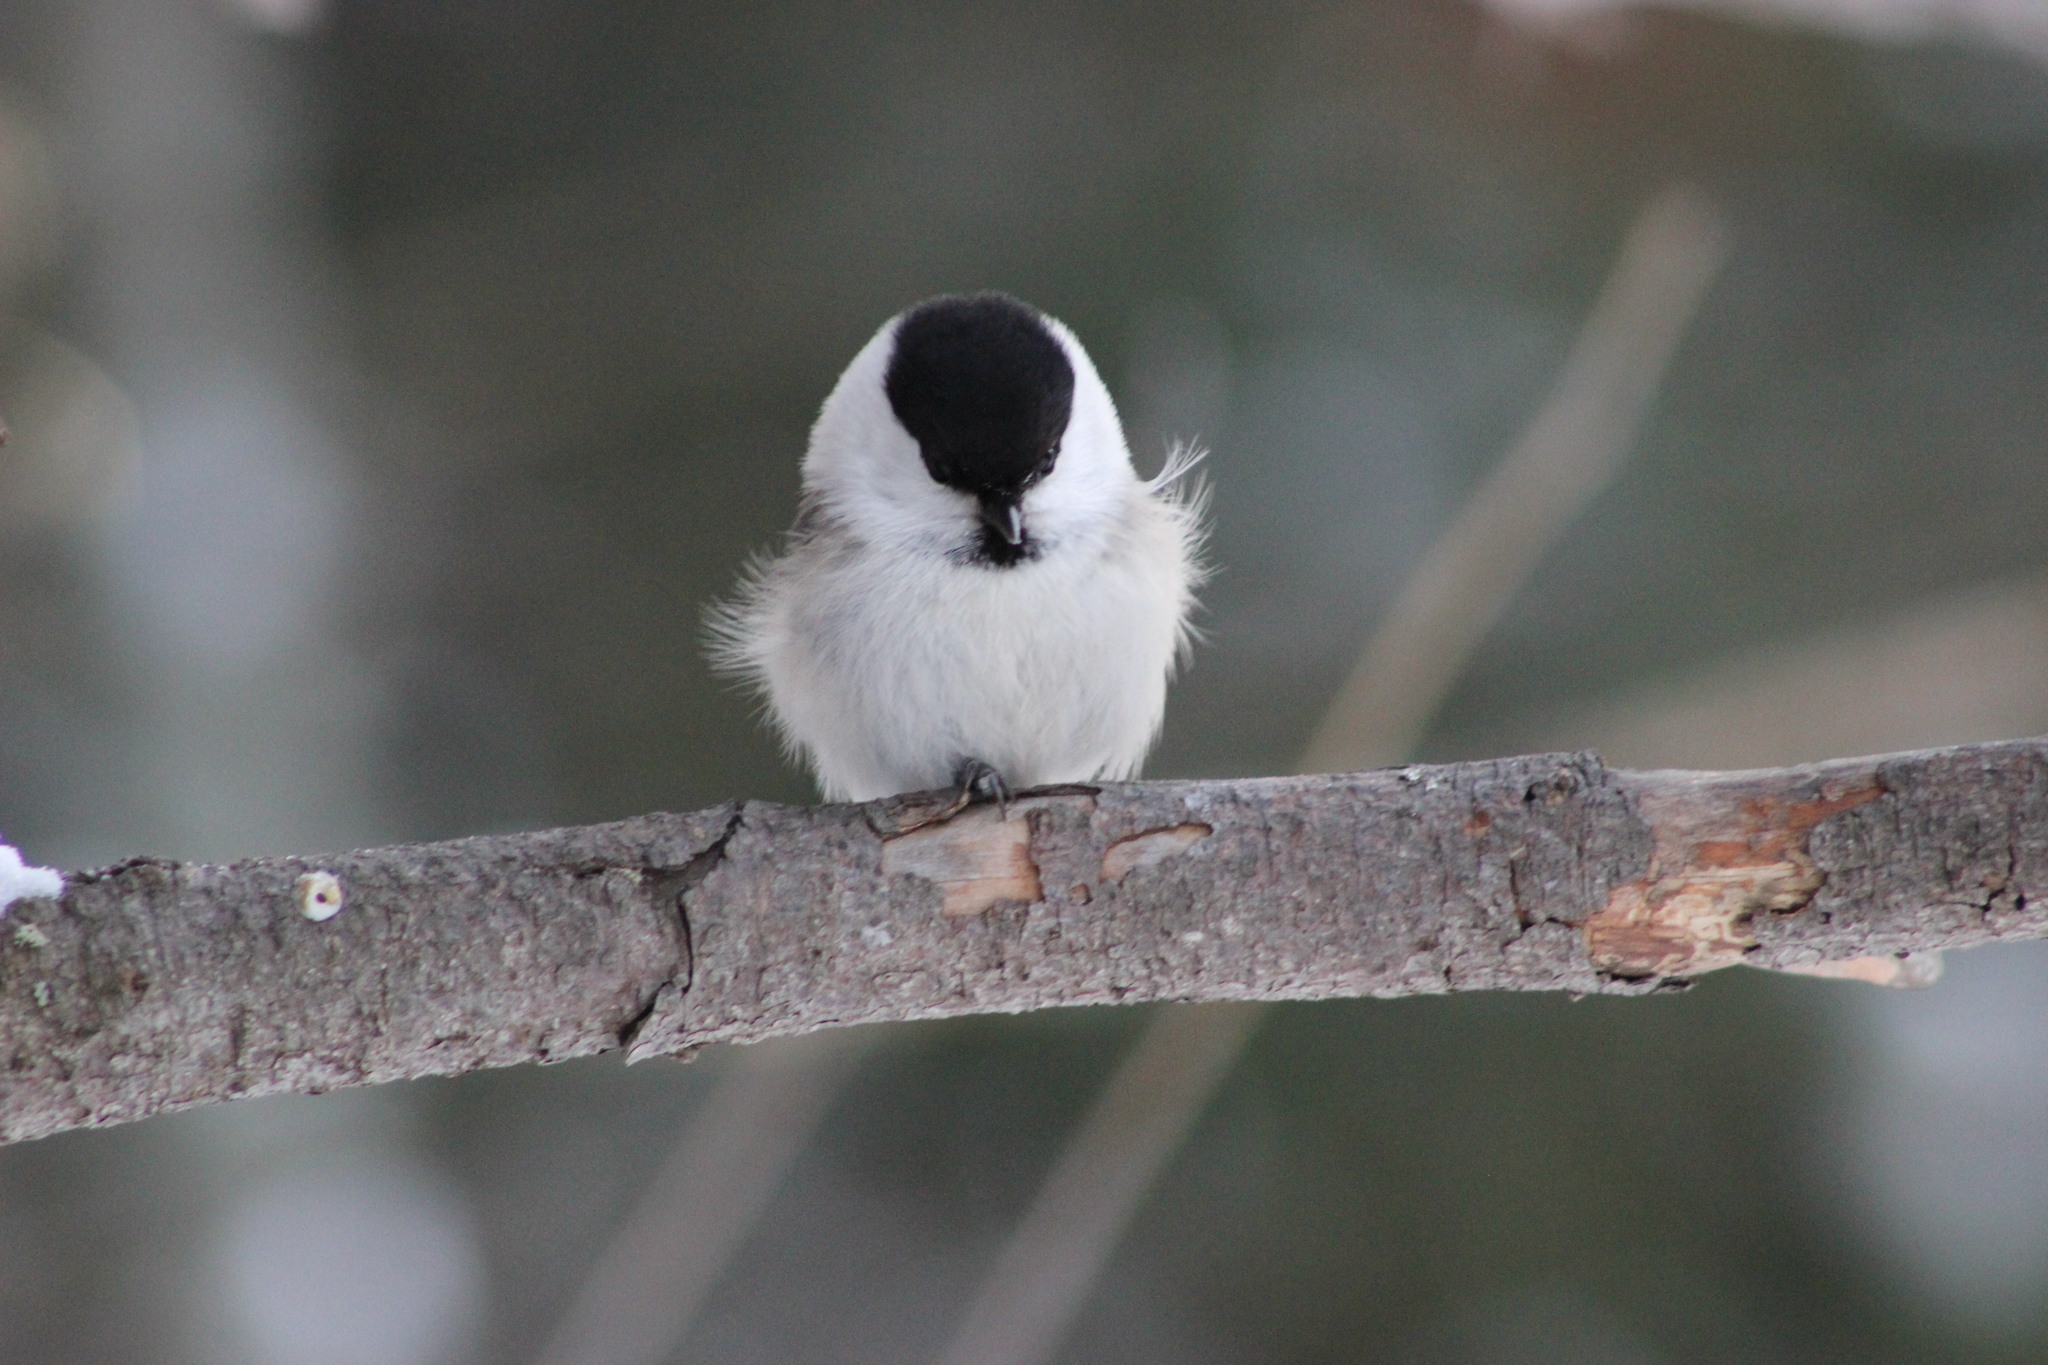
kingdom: Animalia
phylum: Chordata
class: Aves
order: Passeriformes
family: Paridae
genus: Poecile
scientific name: Poecile montanus
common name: Willow tit
